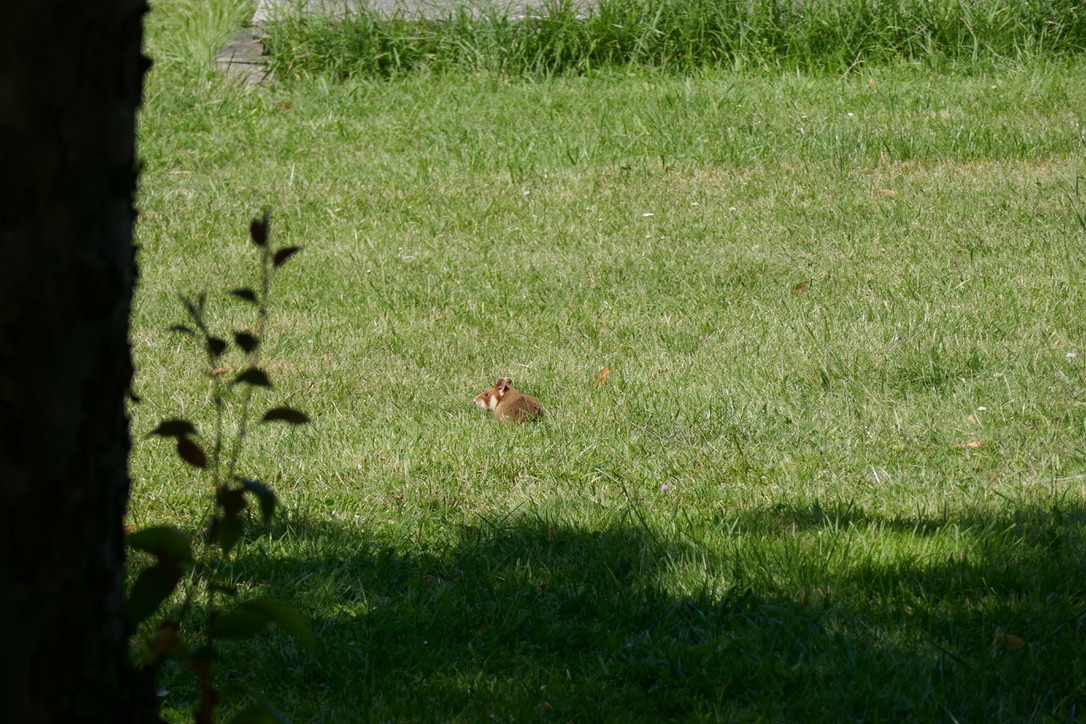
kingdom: Animalia
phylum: Chordata
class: Mammalia
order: Rodentia
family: Cricetidae
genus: Cricetus
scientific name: Cricetus cricetus
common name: Common hamster
